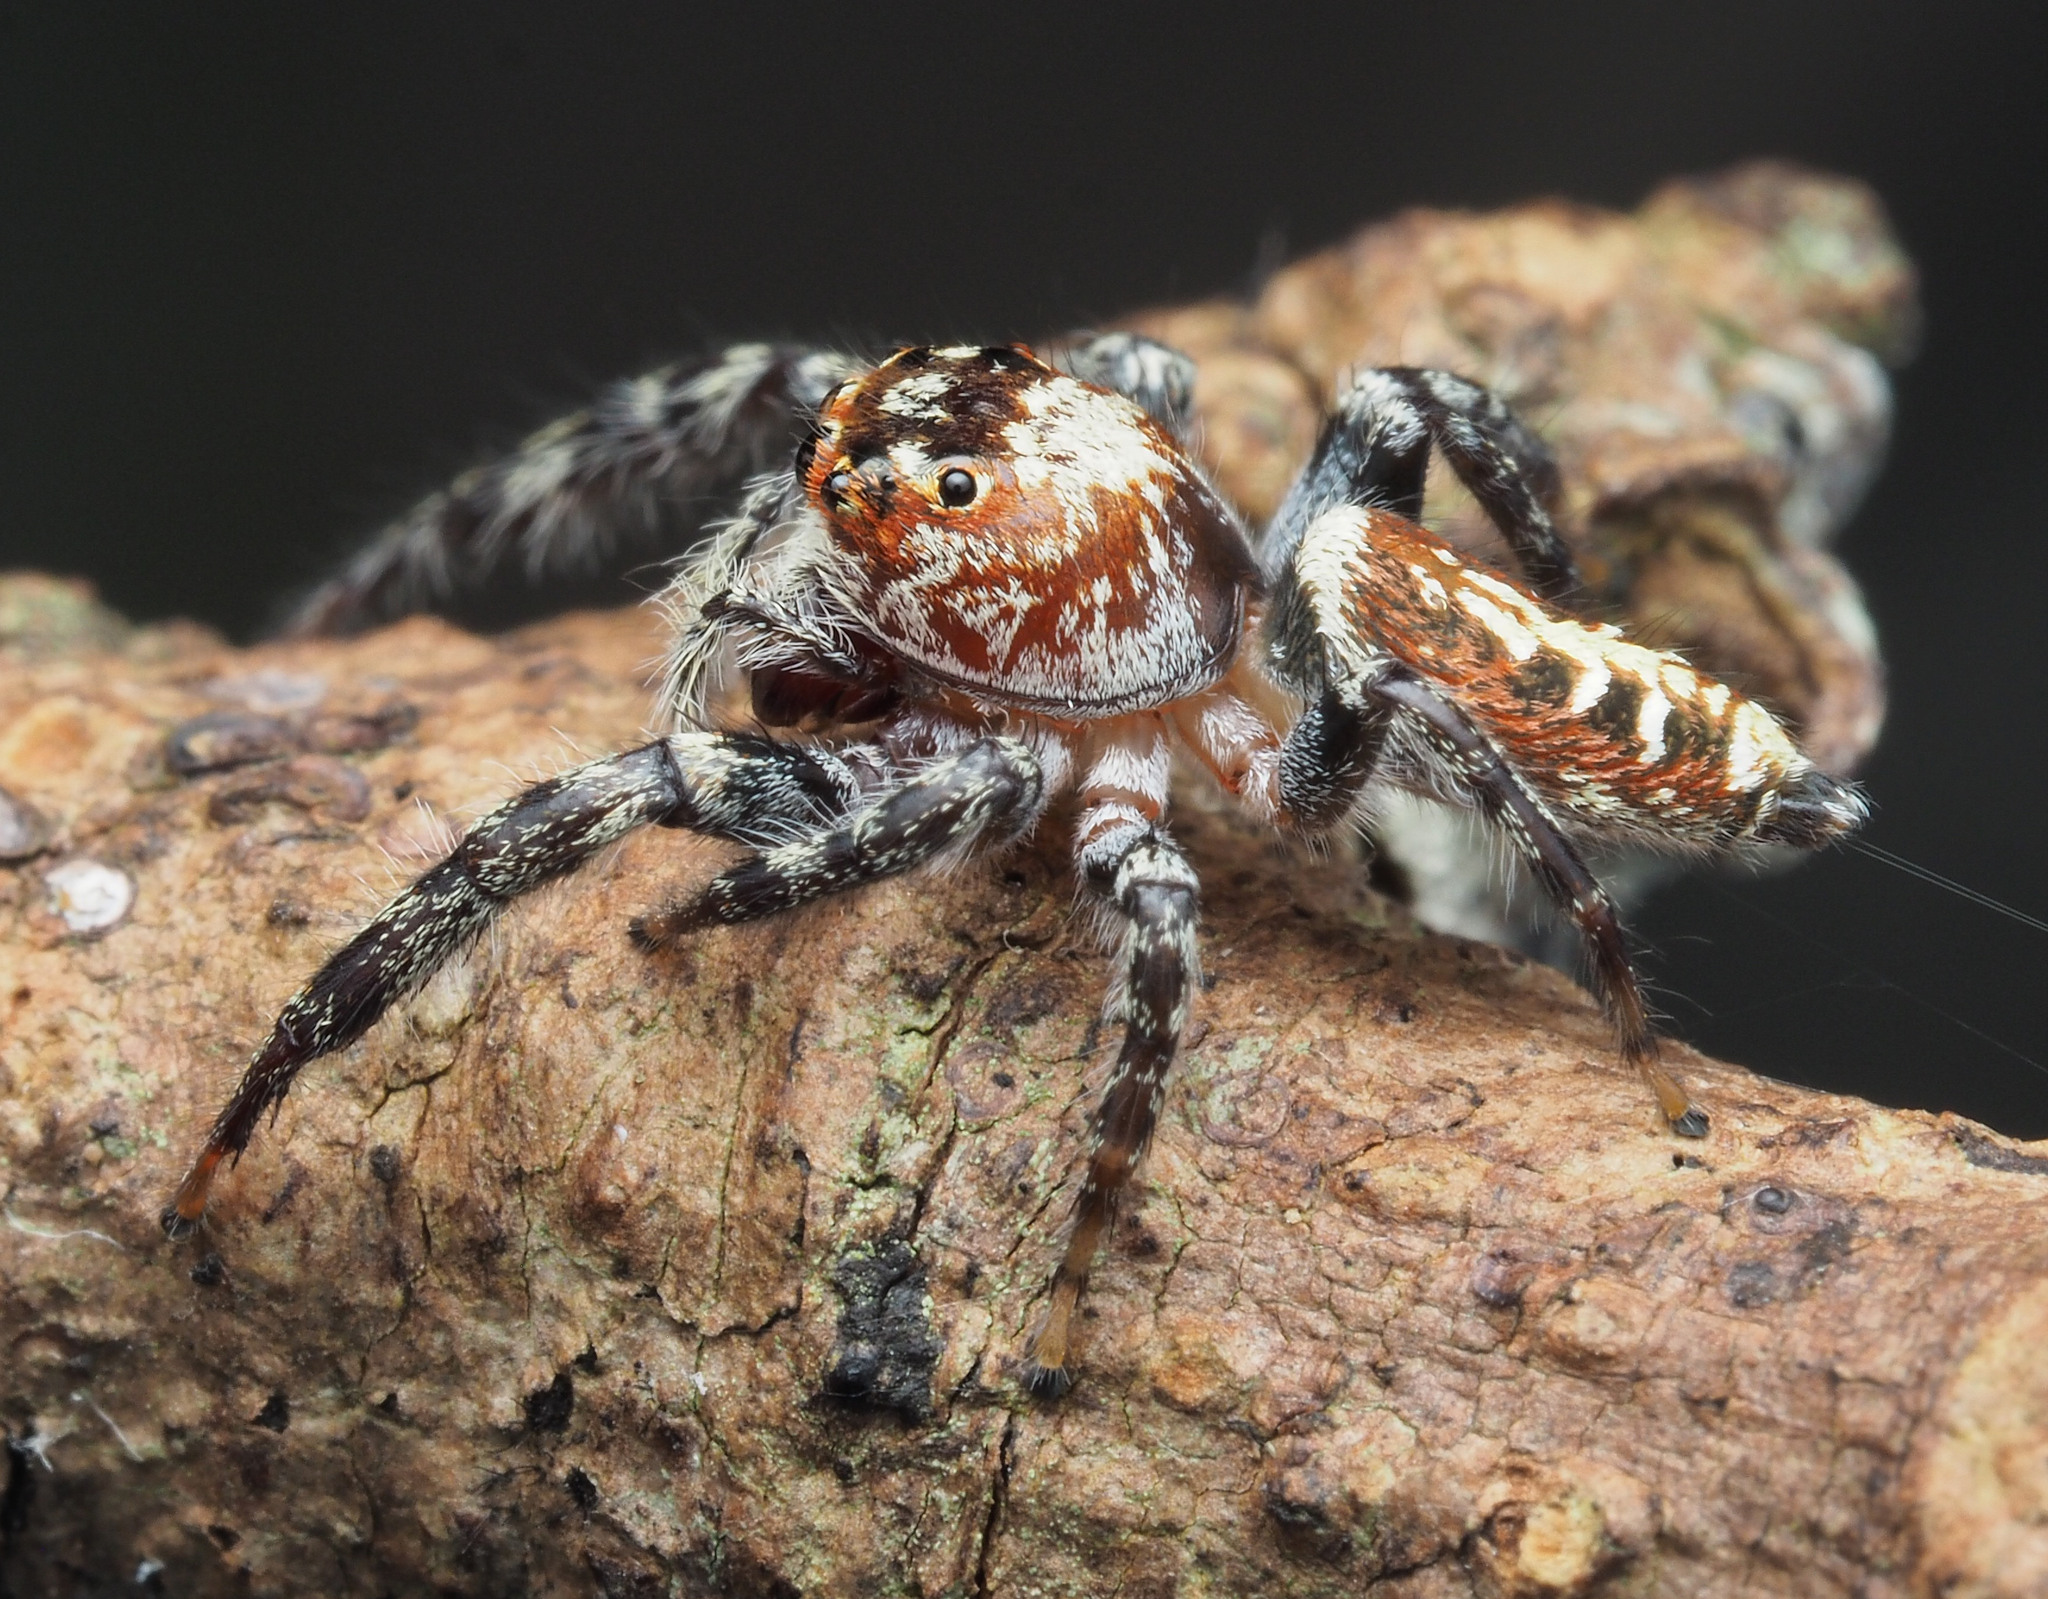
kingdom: Animalia
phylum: Arthropoda
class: Arachnida
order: Araneae
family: Salticidae
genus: Opisthoncus
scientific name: Opisthoncus quadratarius
